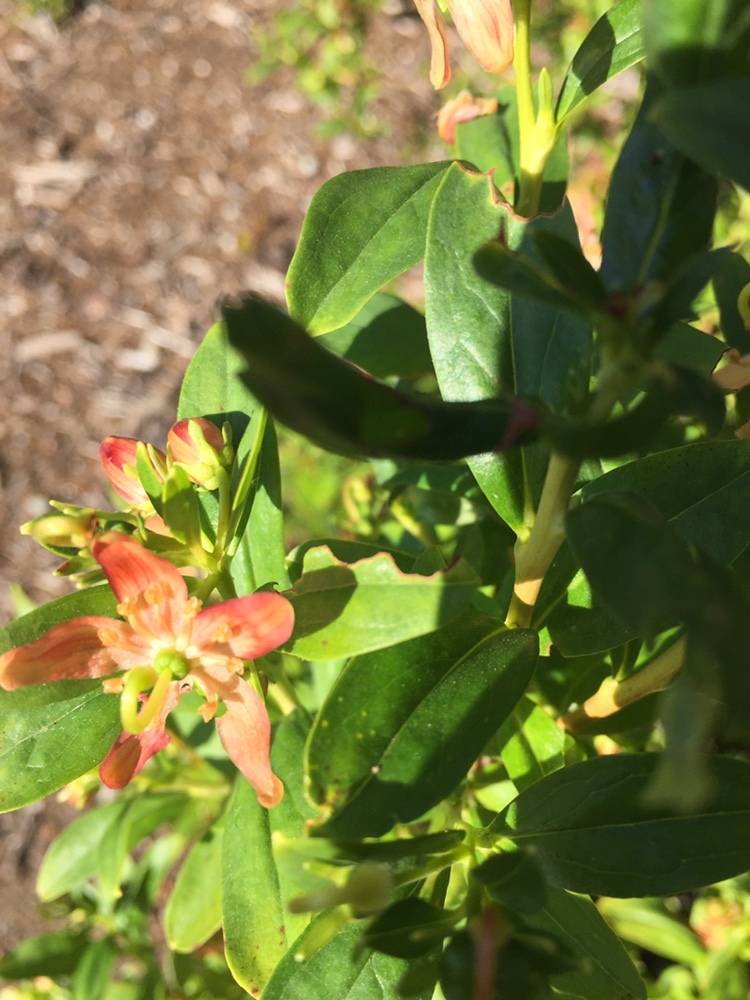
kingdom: Plantae
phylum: Tracheophyta
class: Magnoliopsida
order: Ericales
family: Ericaceae
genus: Elliottia
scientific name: Elliottia pyroliflora
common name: Copperbush
